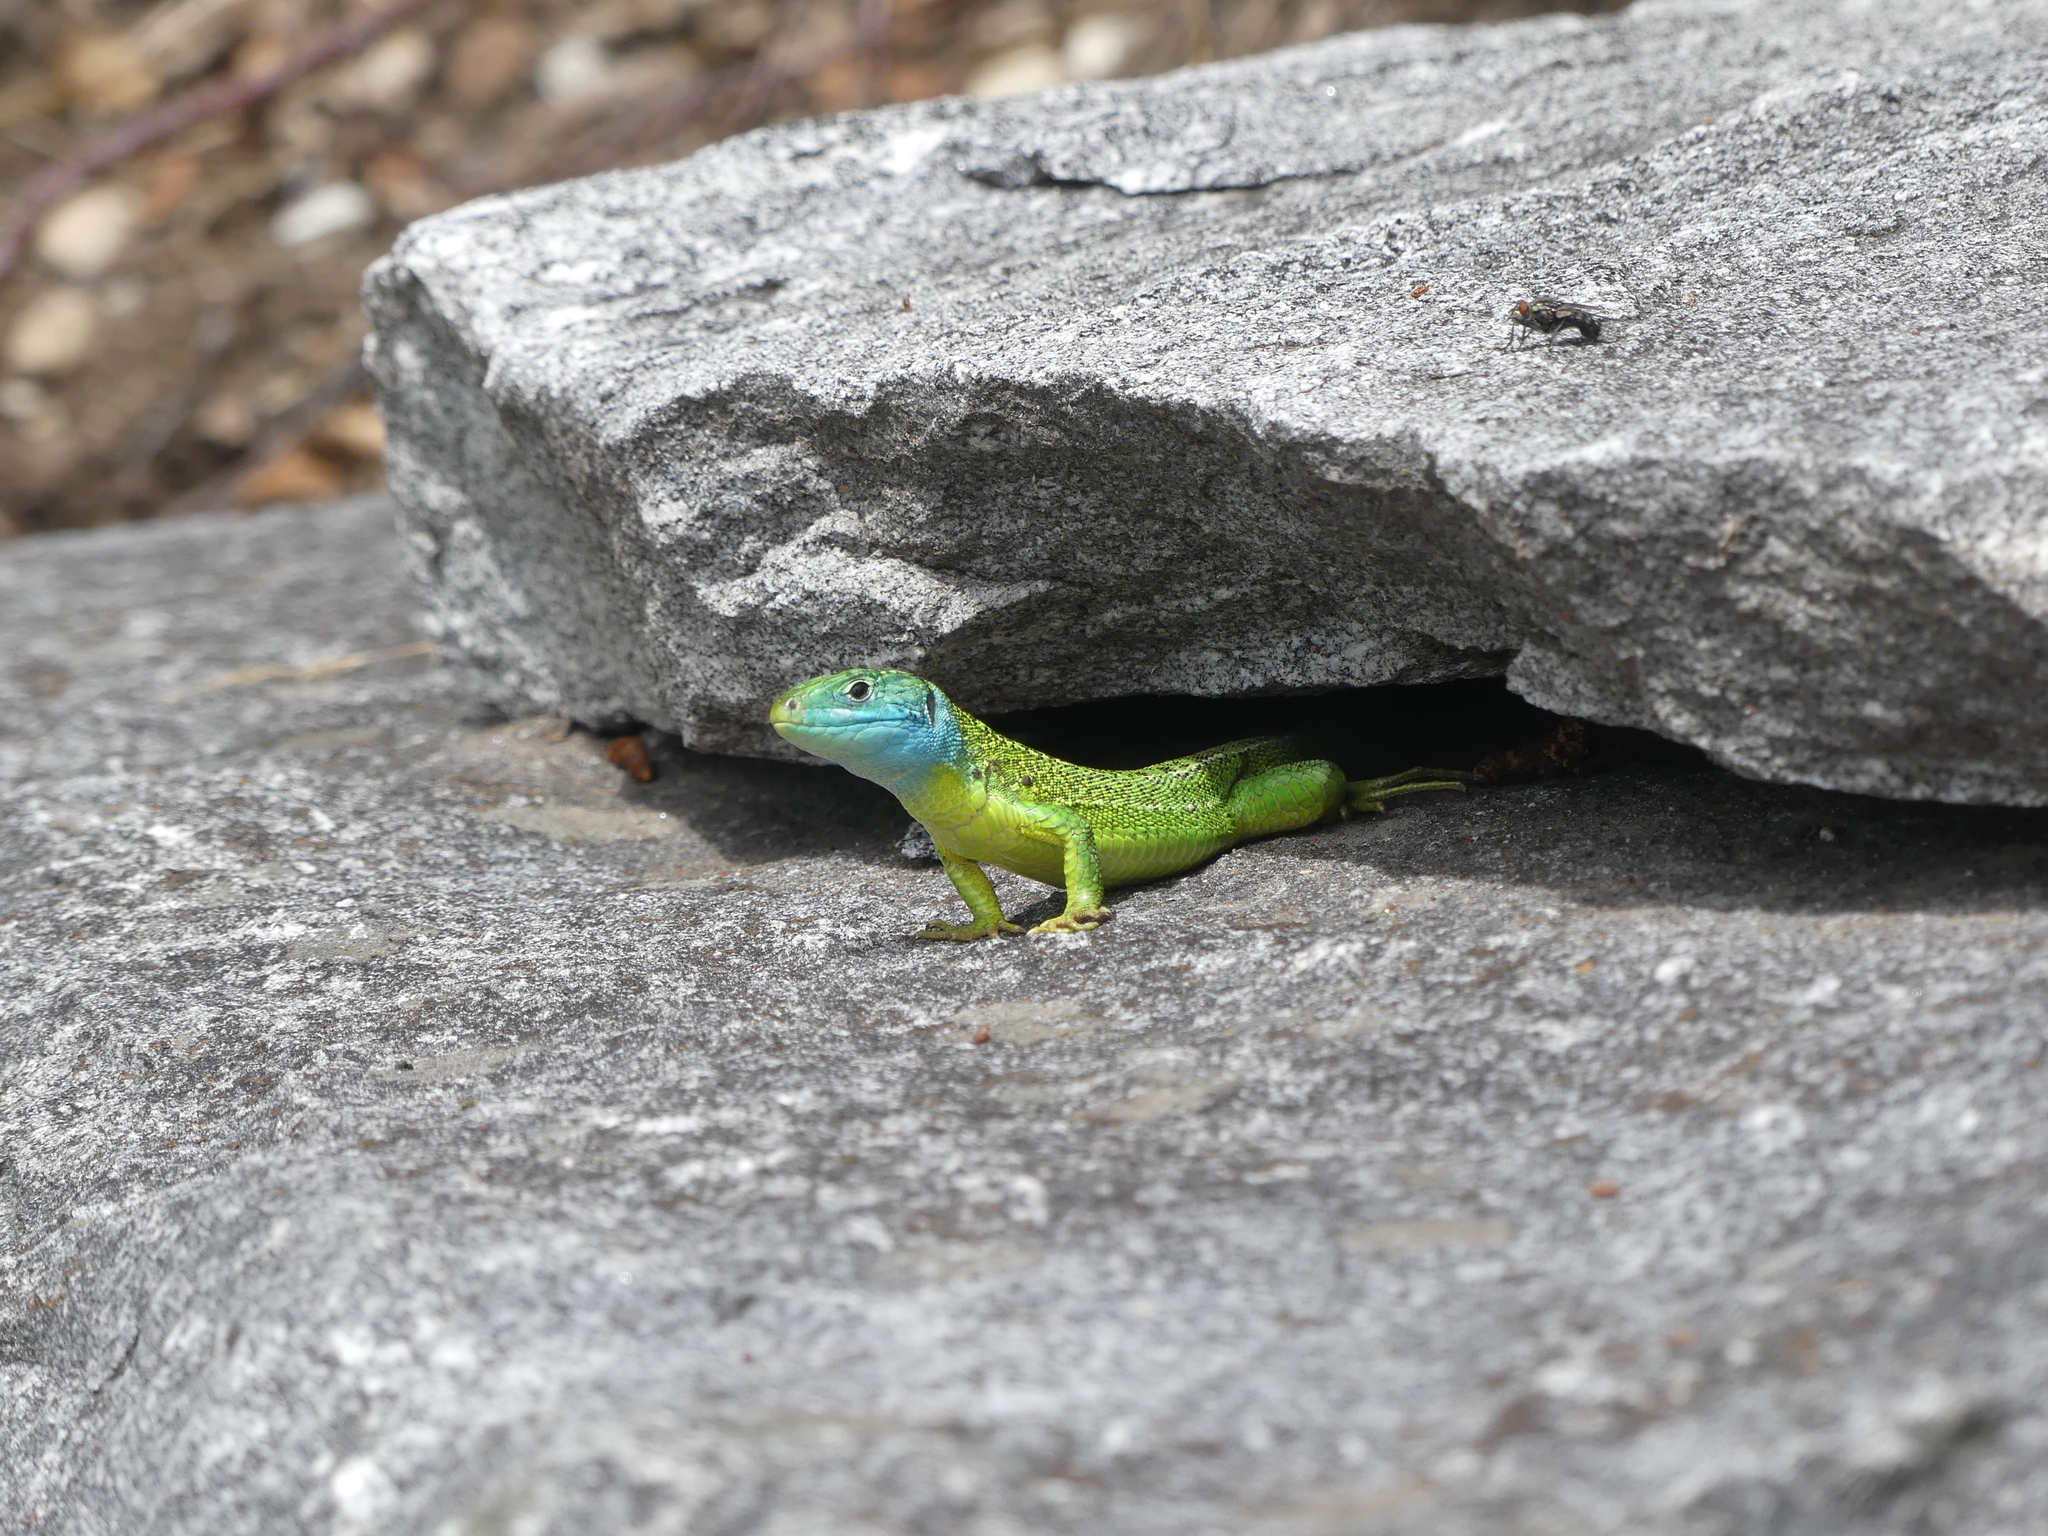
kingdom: Animalia
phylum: Chordata
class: Squamata
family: Lacertidae
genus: Lacerta
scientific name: Lacerta bilineata
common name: Western green lizard
